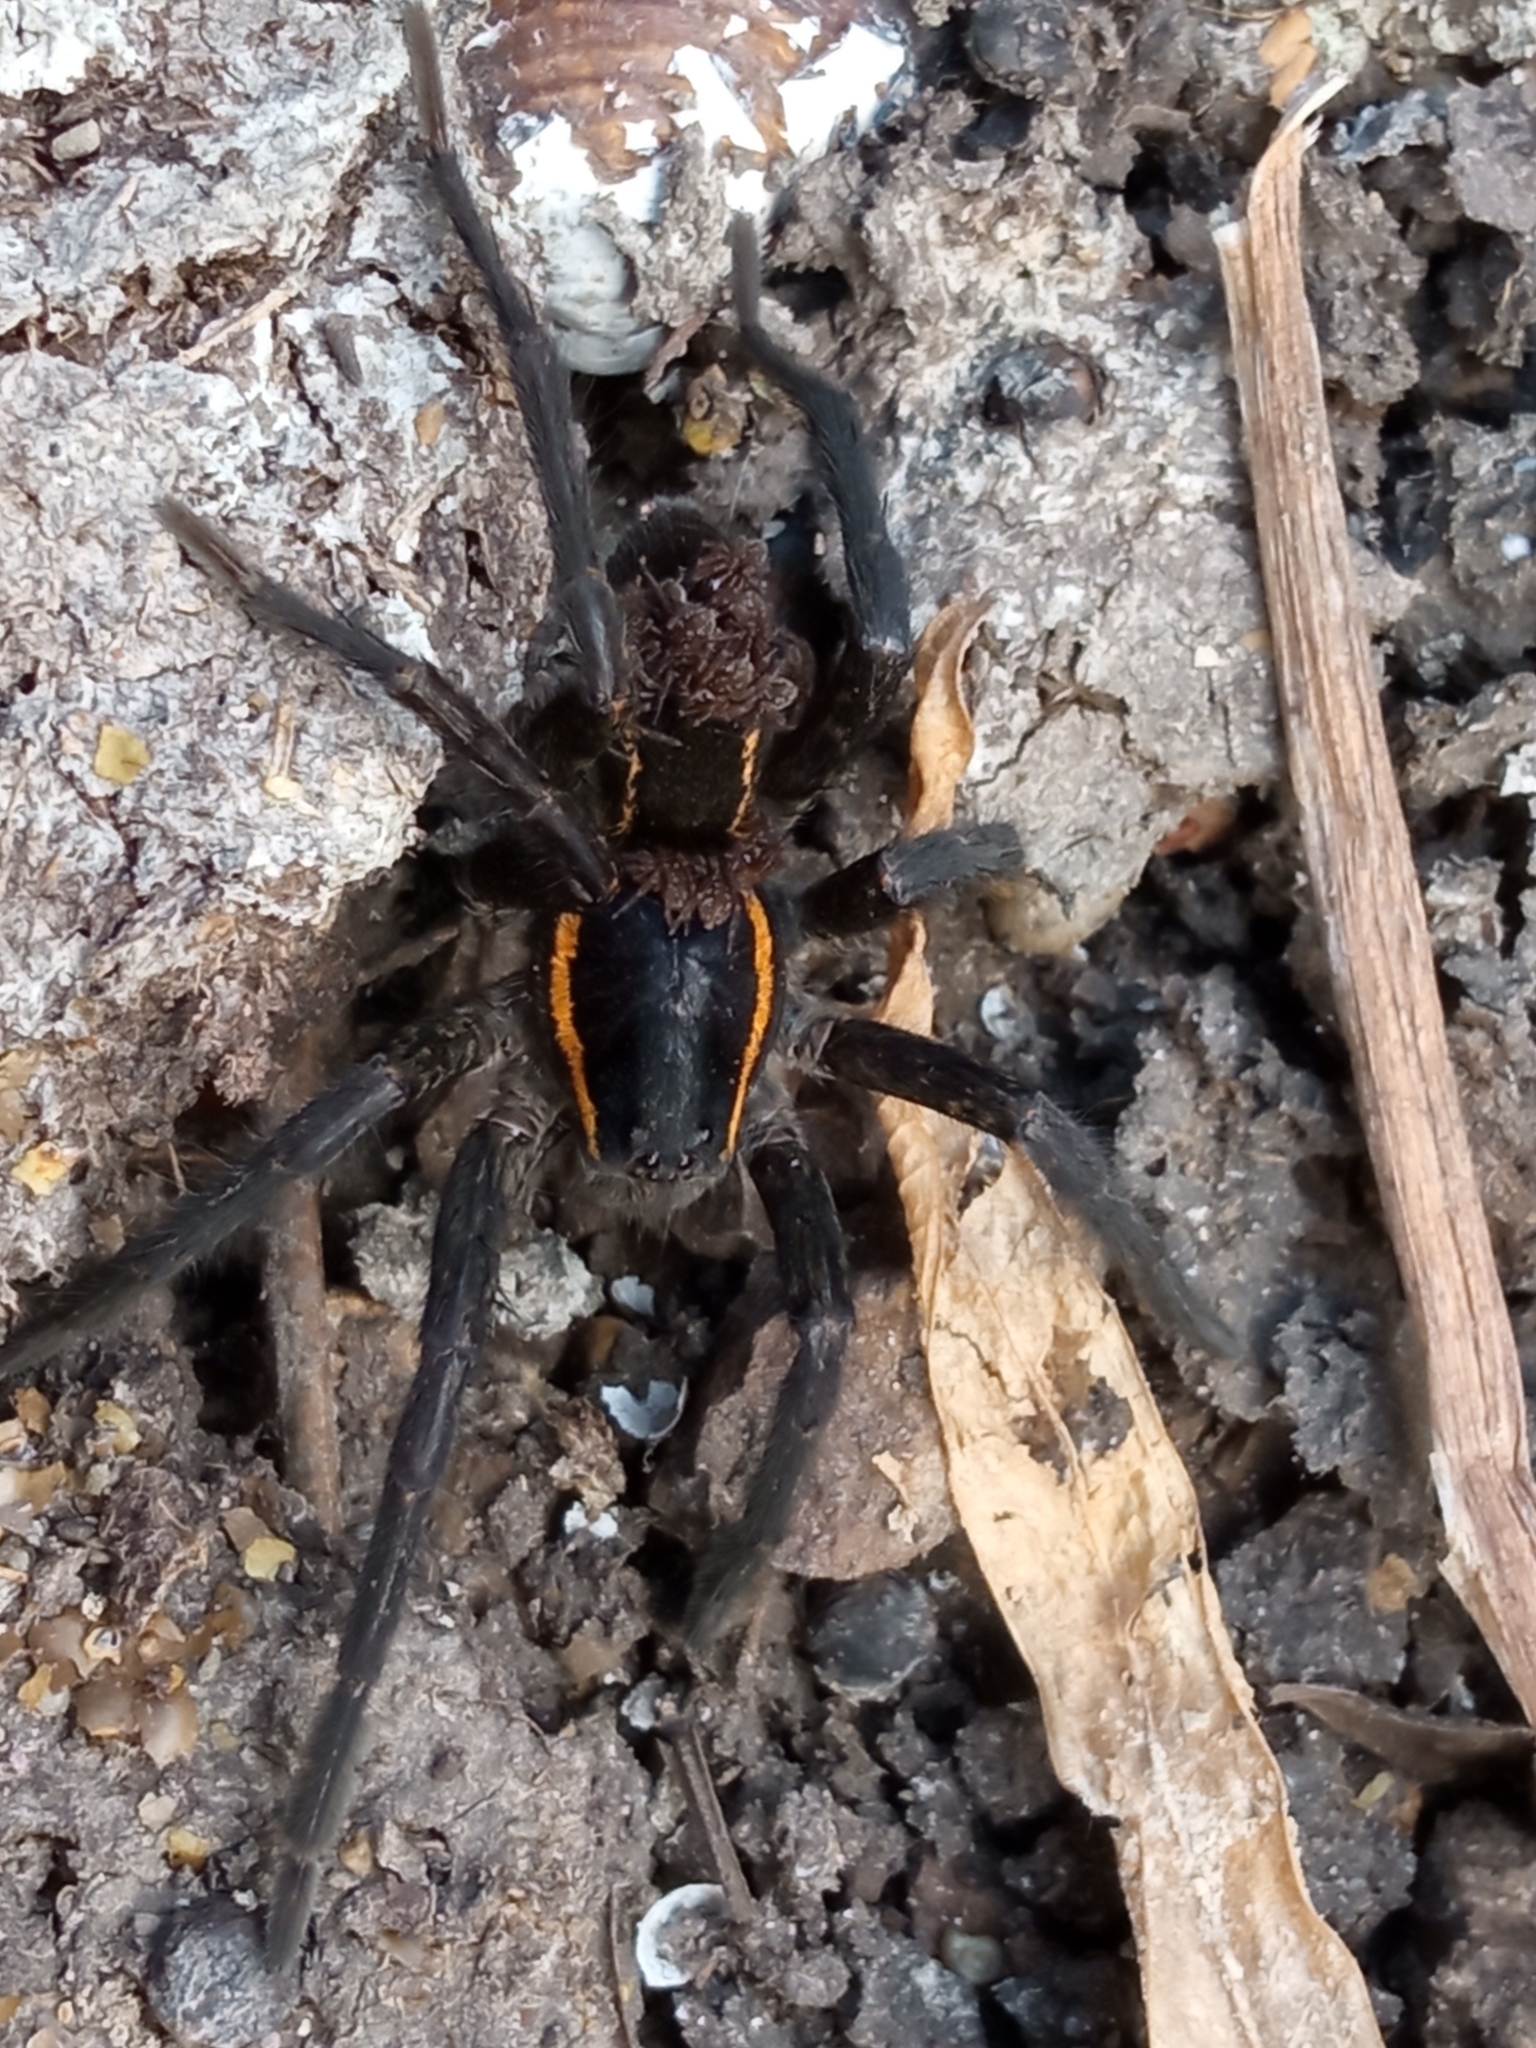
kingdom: Animalia
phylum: Arthropoda
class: Arachnida
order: Araneae
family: Lycosidae
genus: Aglaoctenus
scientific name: Aglaoctenus yacytata
